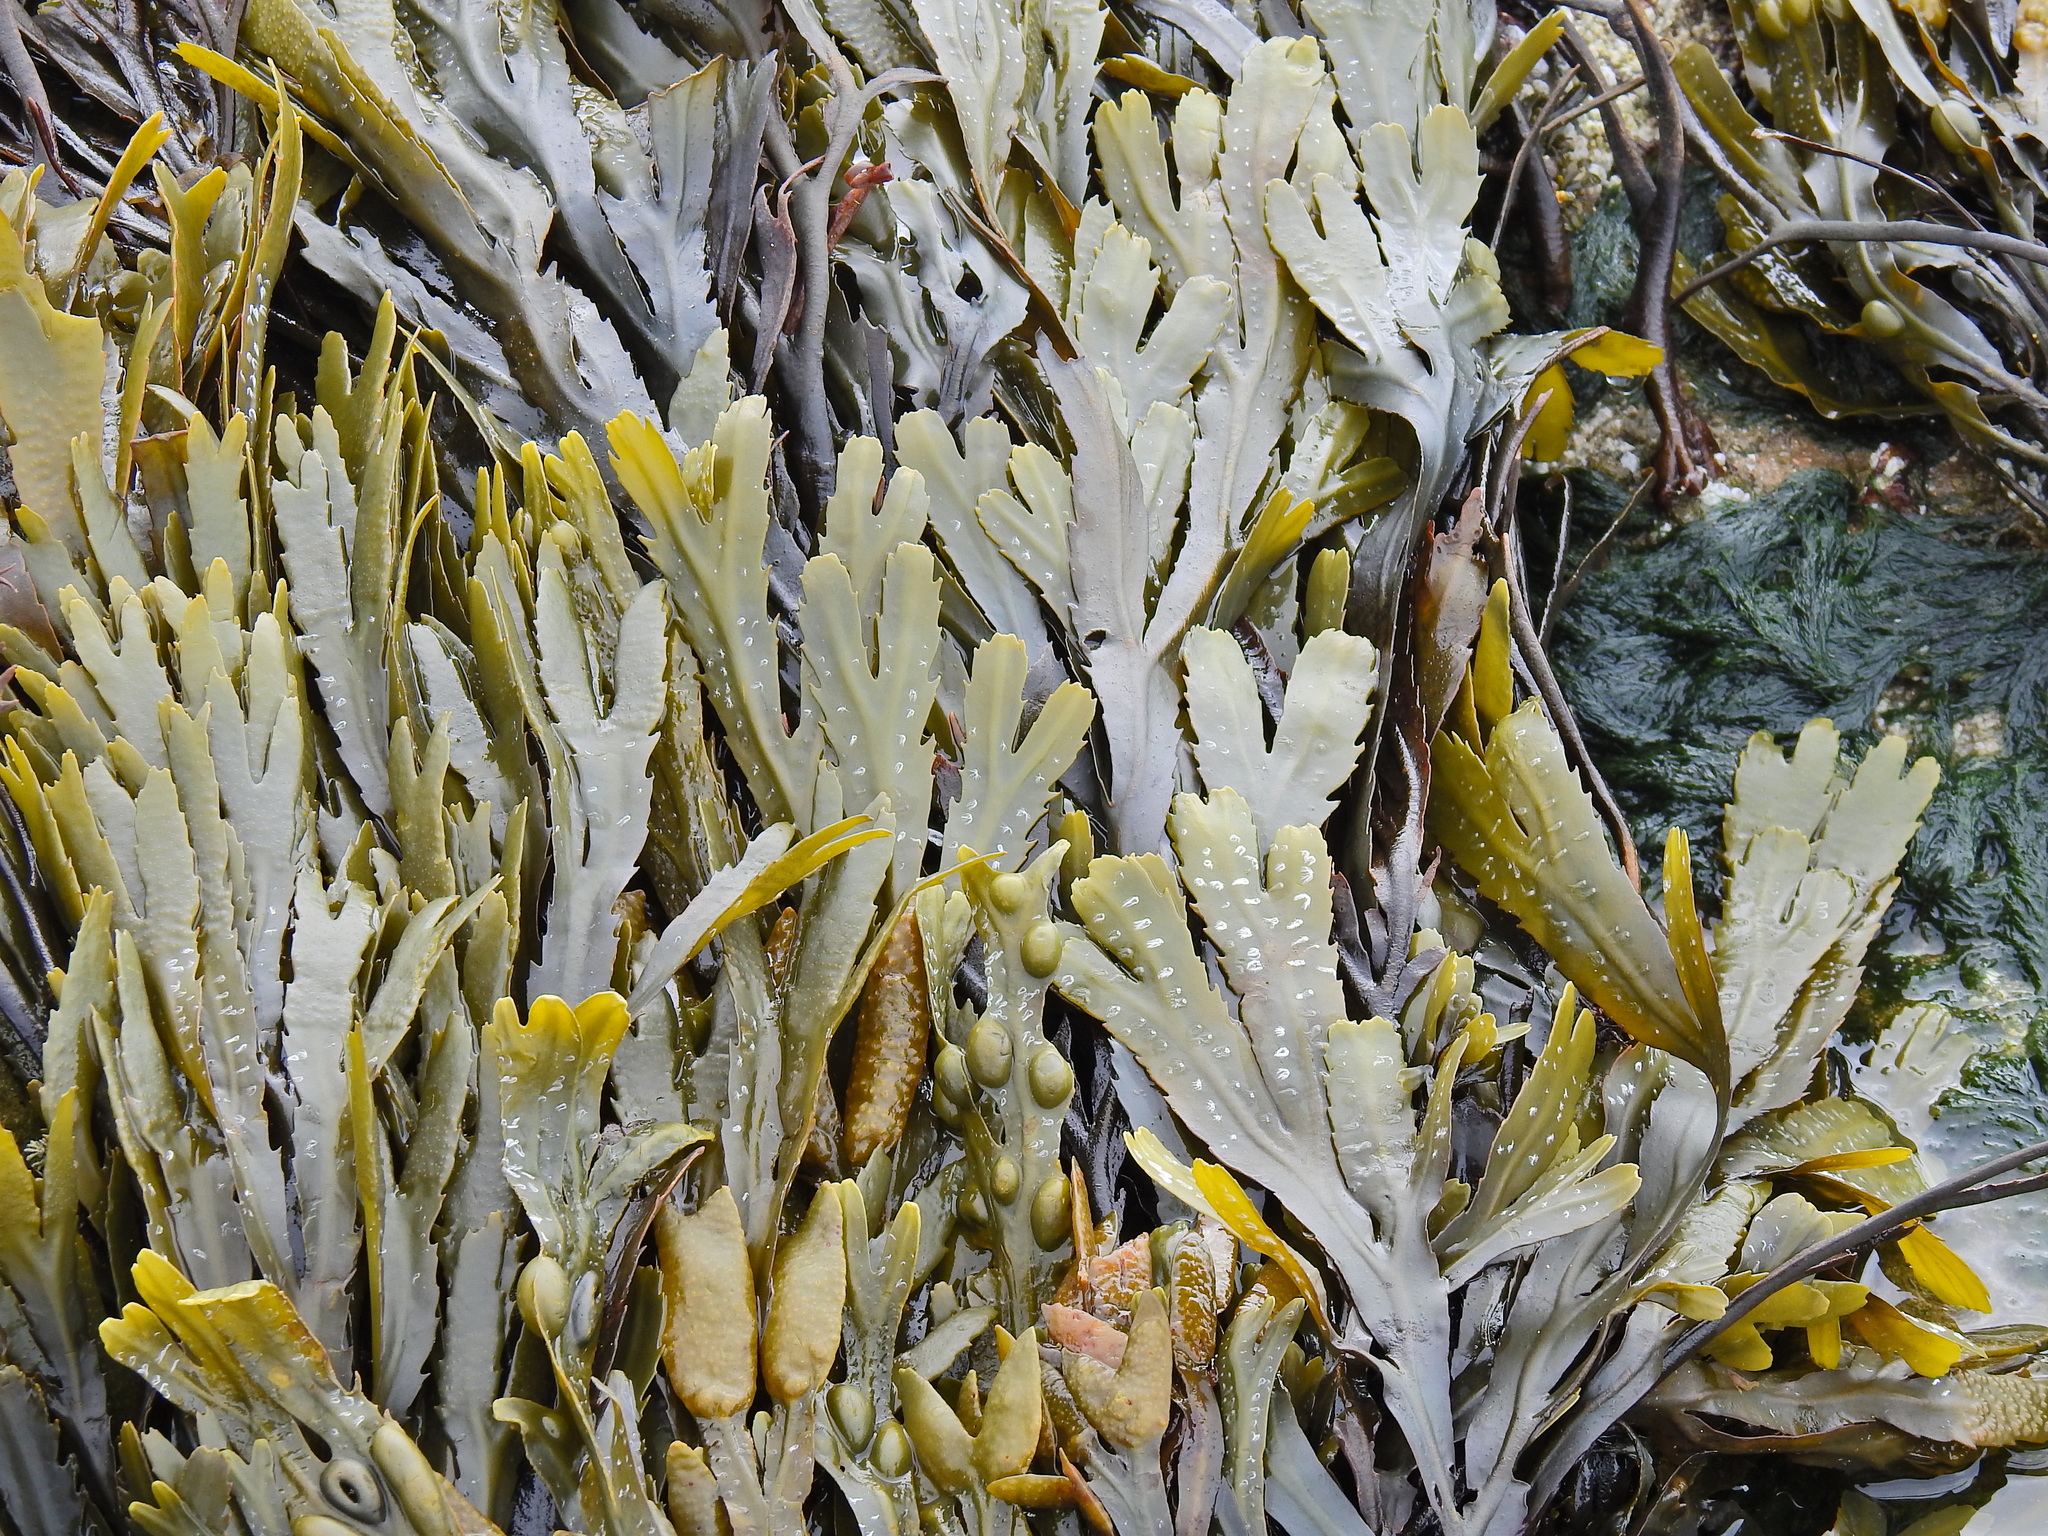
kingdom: Chromista
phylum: Ochrophyta
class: Phaeophyceae
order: Fucales
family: Fucaceae
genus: Fucus
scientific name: Fucus serratus
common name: Toothed wrack
